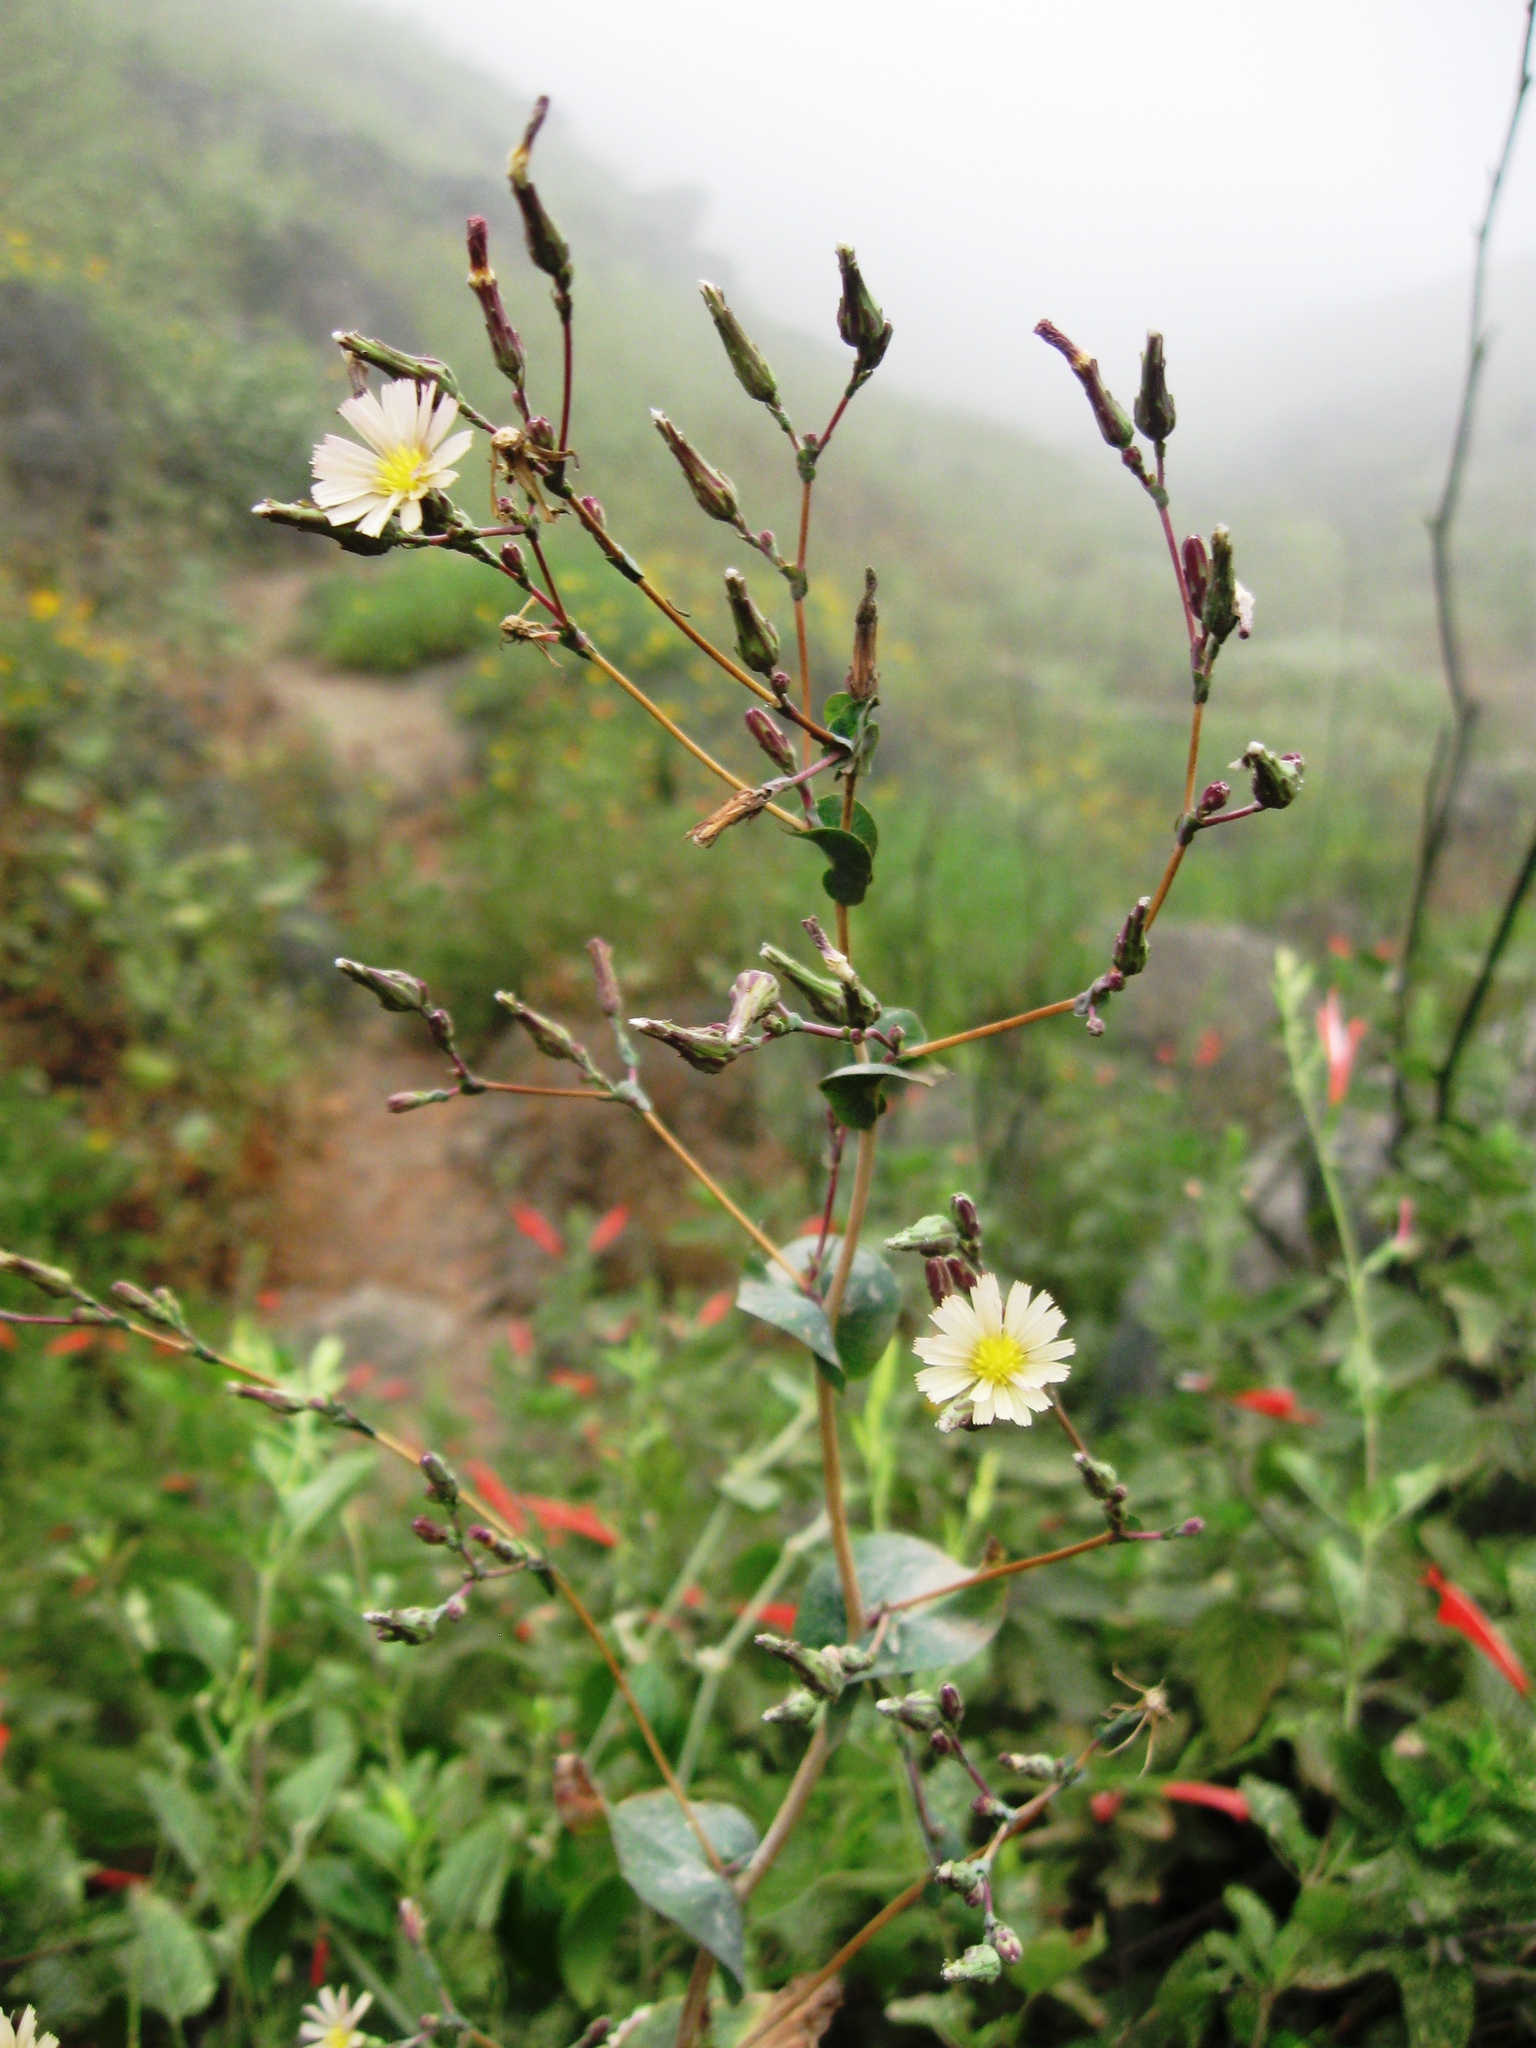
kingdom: Plantae
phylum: Tracheophyta
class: Magnoliopsida
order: Asterales
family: Asteraceae
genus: Lactuca
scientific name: Lactuca serriola
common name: Prickly lettuce
